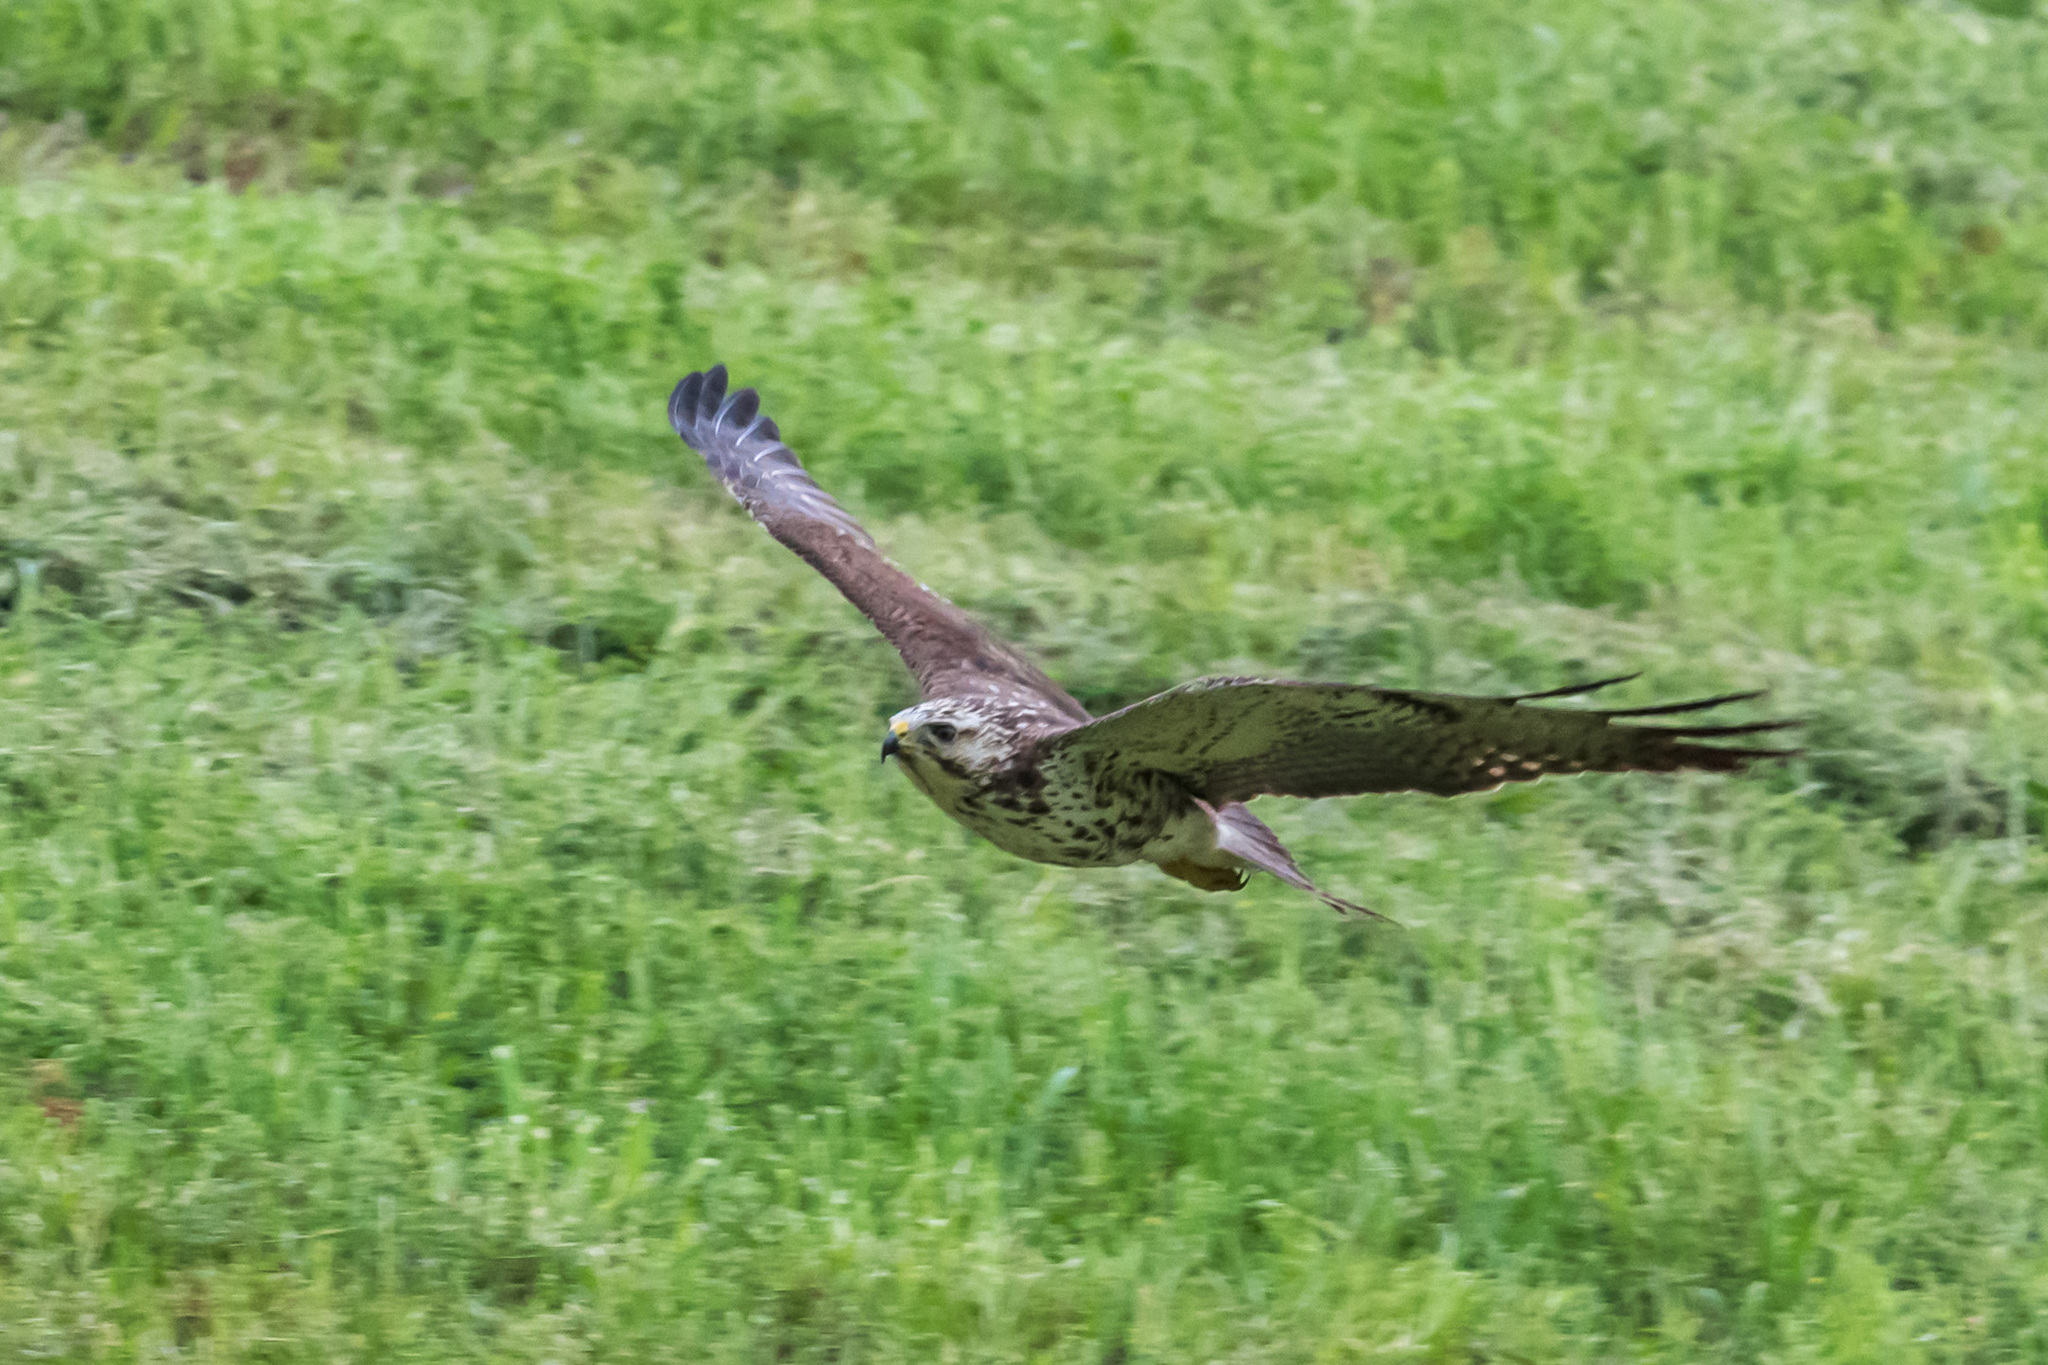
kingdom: Animalia
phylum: Chordata
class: Aves
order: Accipitriformes
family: Accipitridae
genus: Buteo
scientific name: Buteo swainsoni
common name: Swainson's hawk
